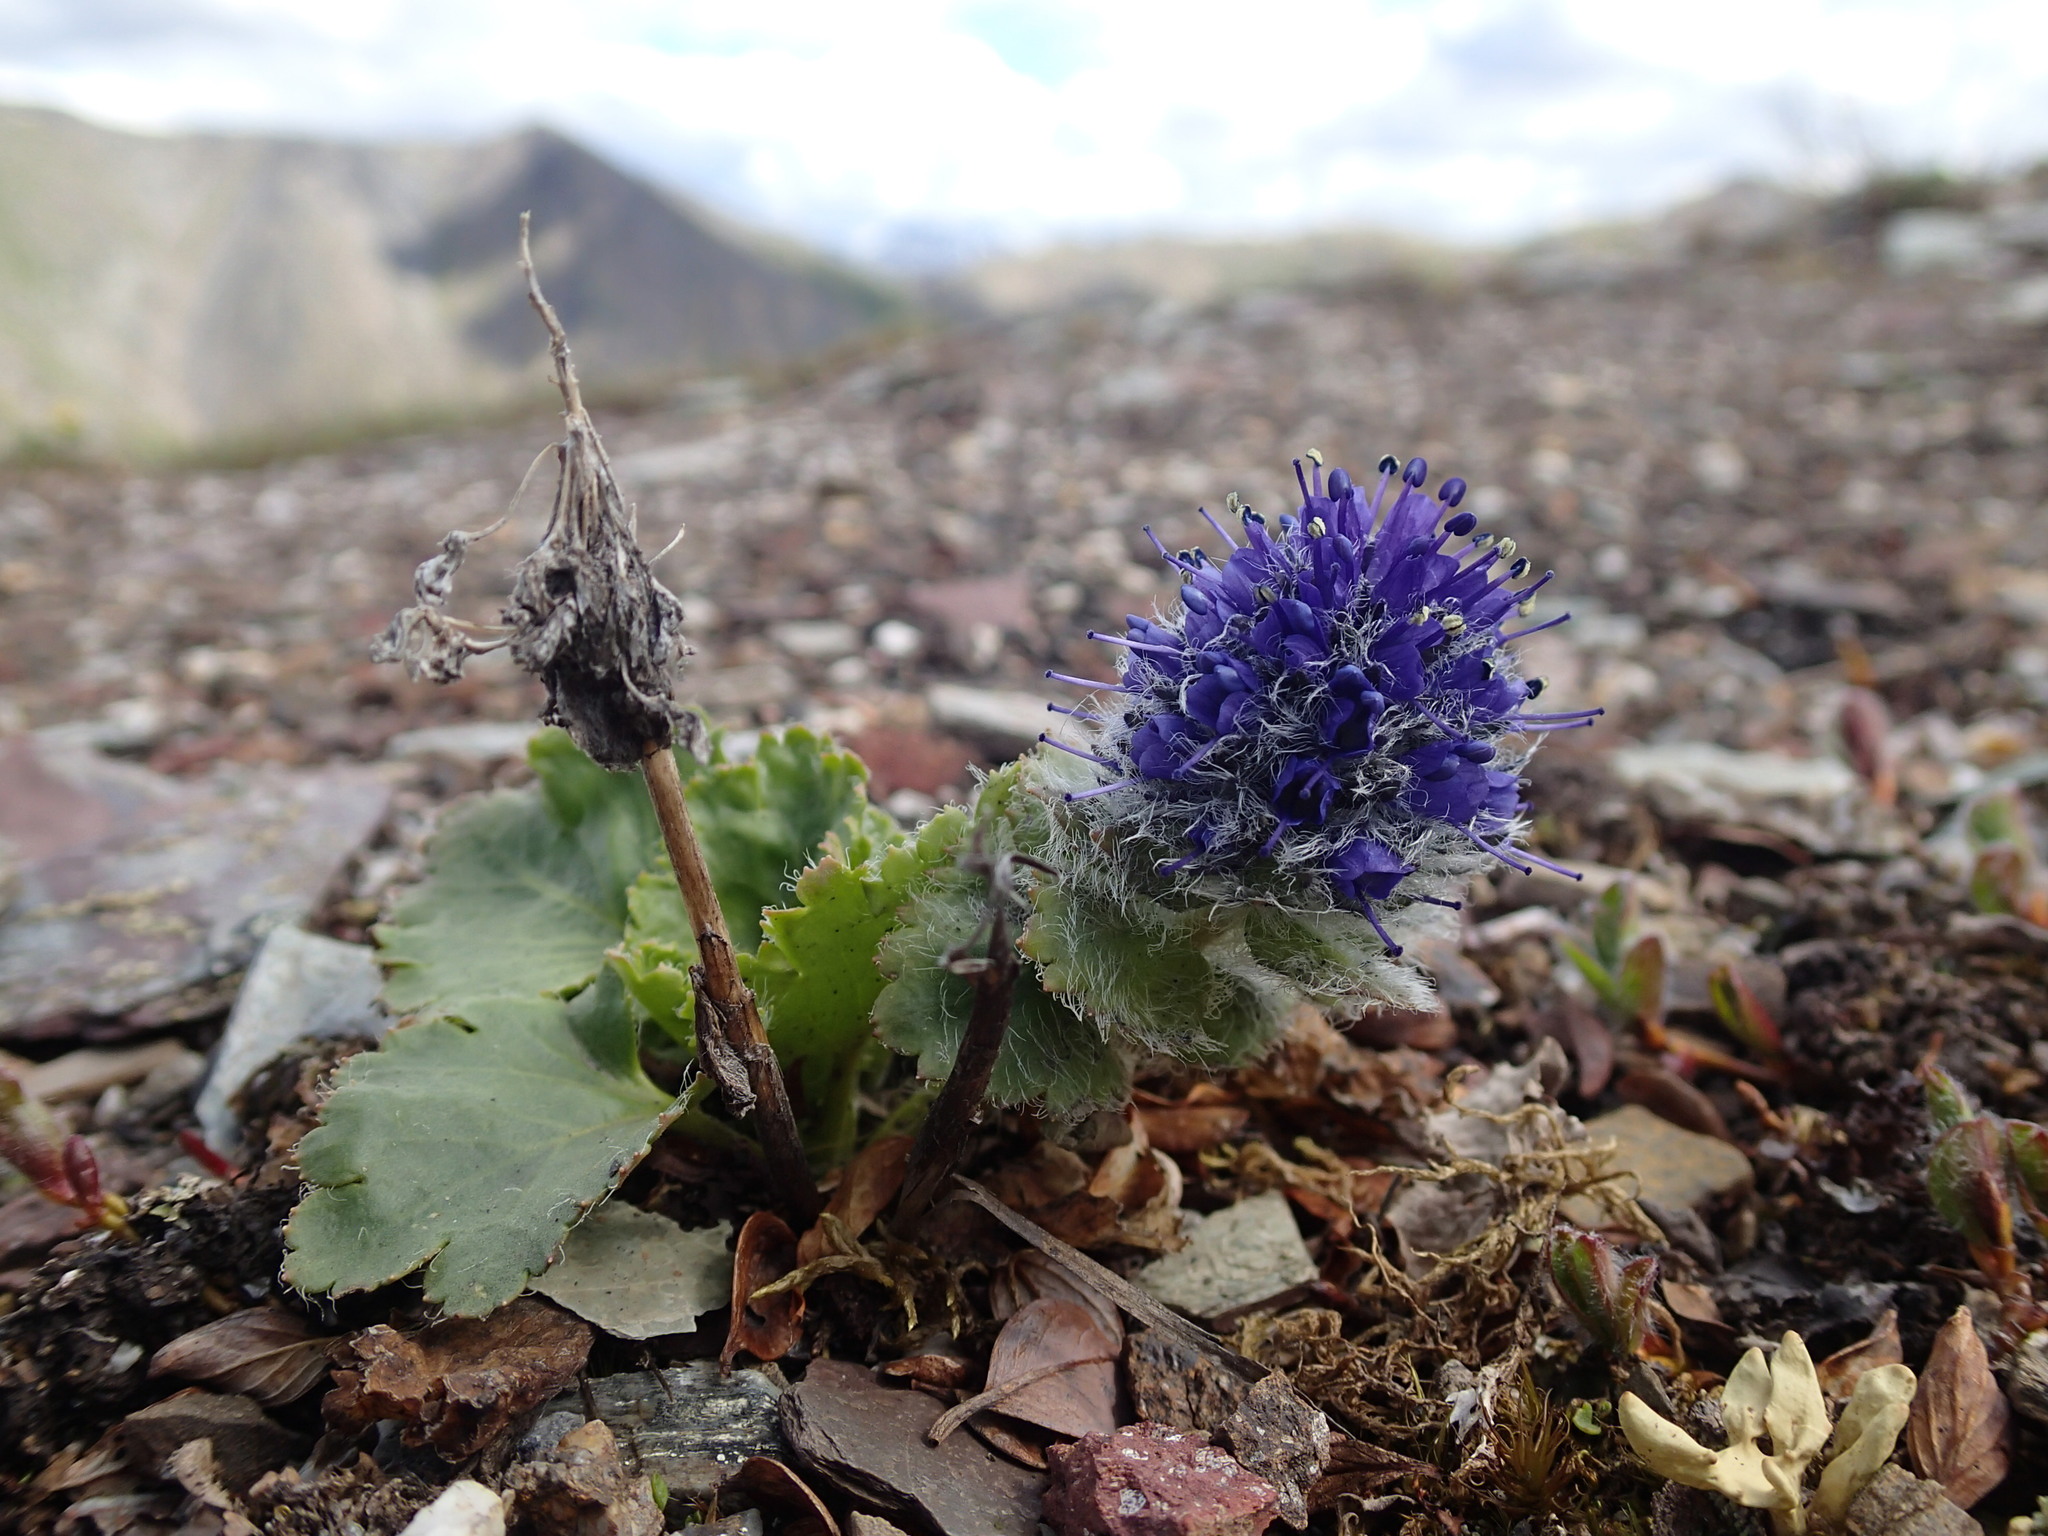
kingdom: Plantae
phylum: Tracheophyta
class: Magnoliopsida
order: Lamiales
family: Plantaginaceae
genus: Synthyris
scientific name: Synthyris borealis
